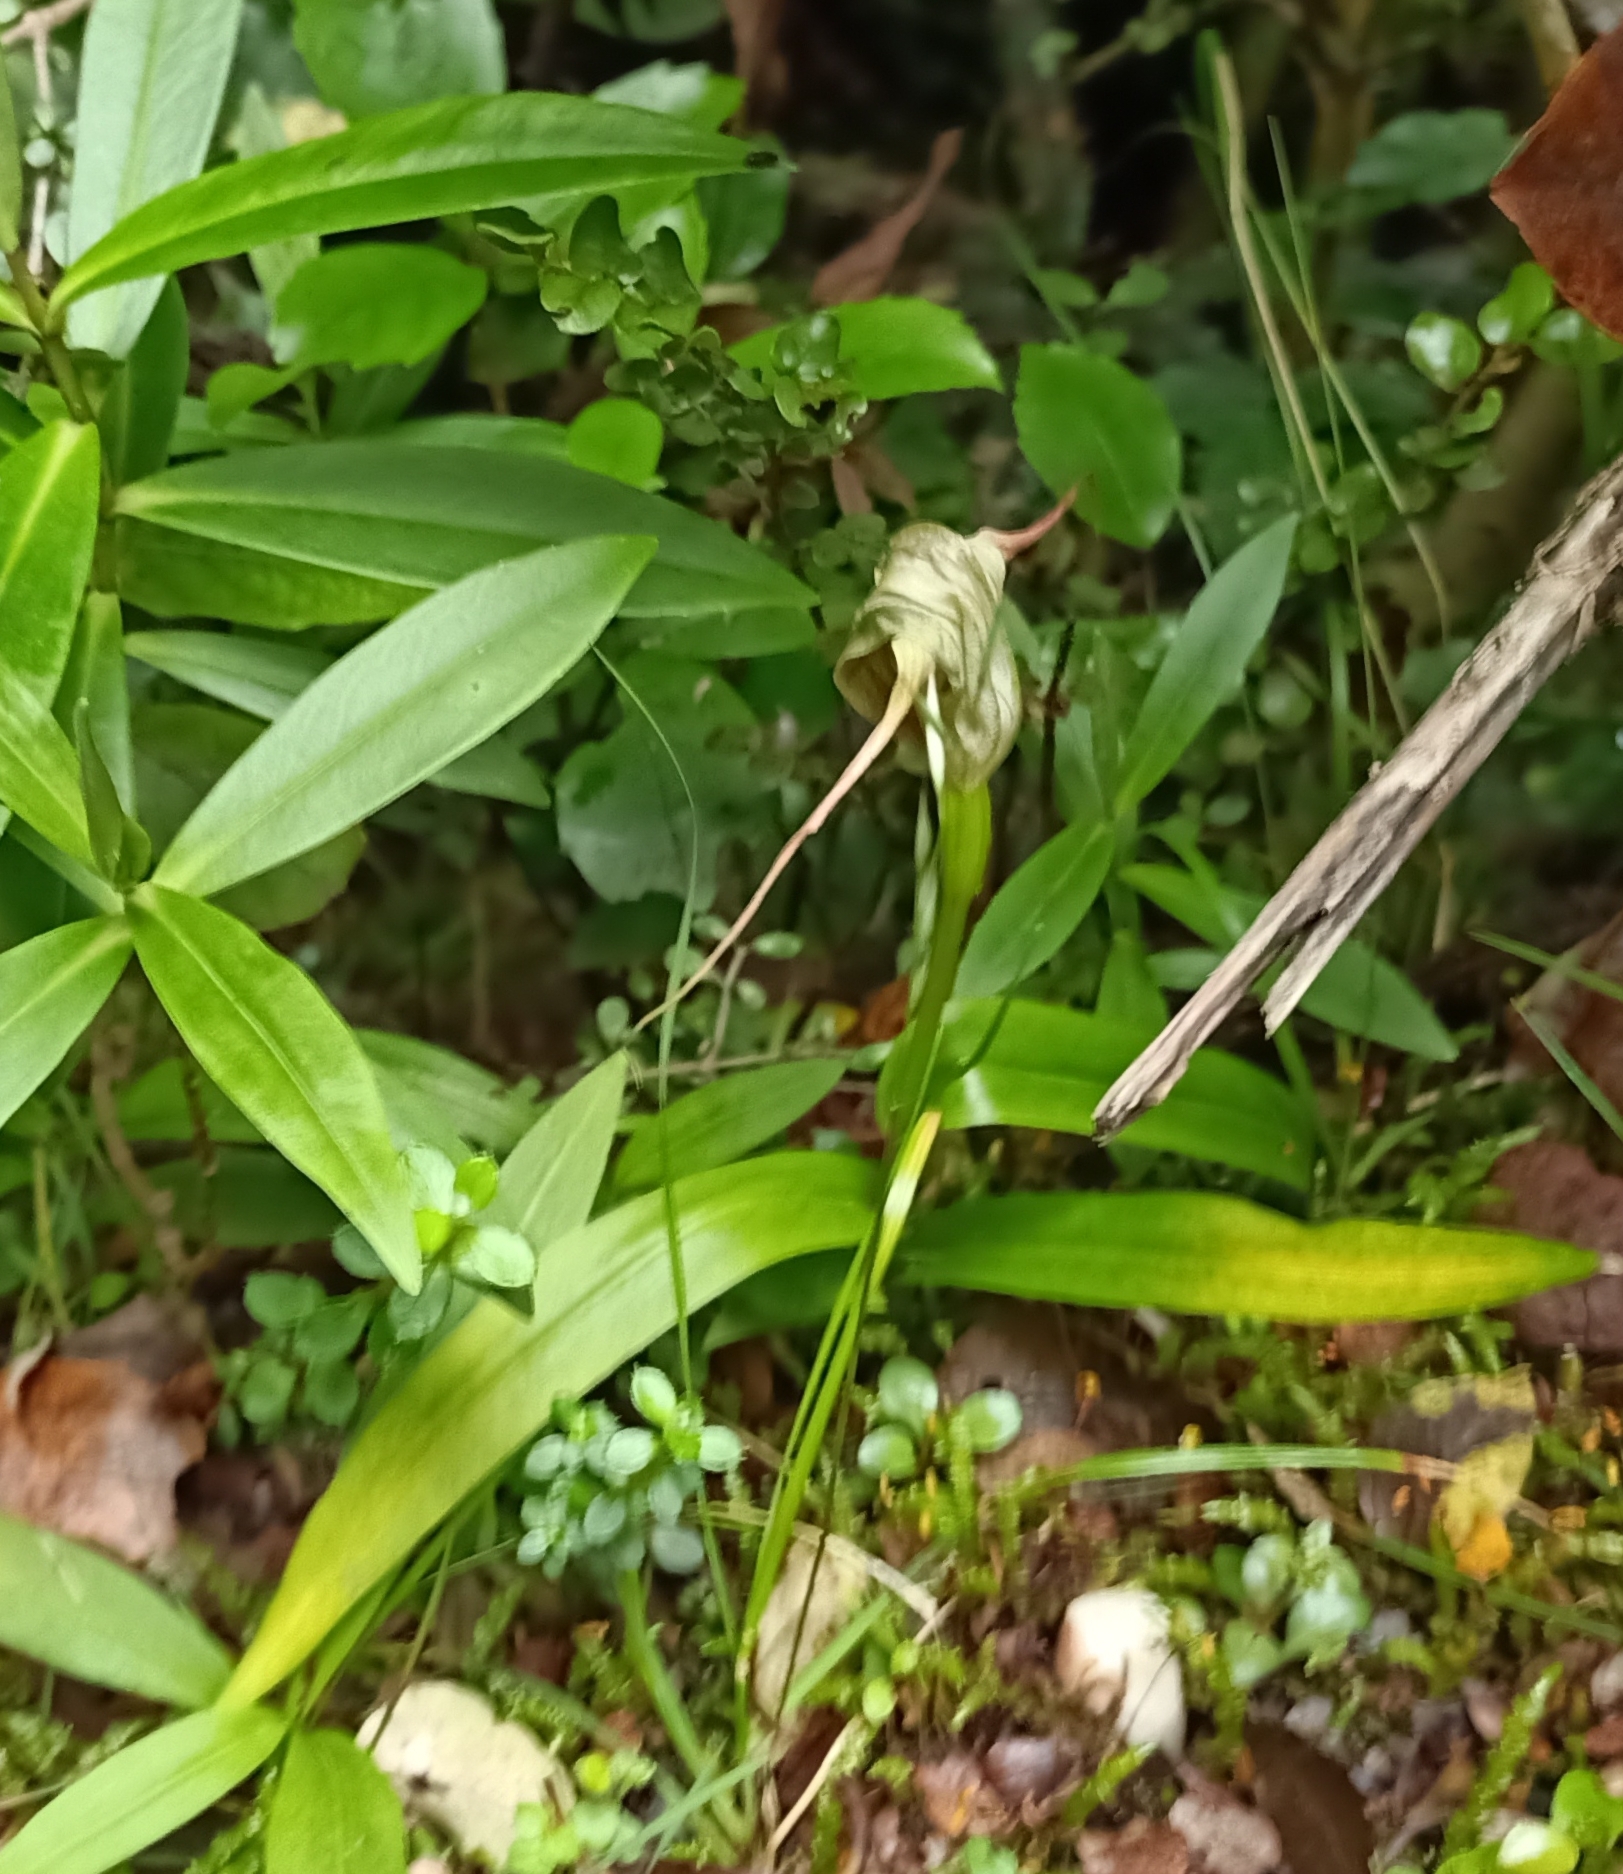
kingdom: Plantae
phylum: Tracheophyta
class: Liliopsida
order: Asparagales
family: Orchidaceae
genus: Pterostylis
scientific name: Pterostylis patens
